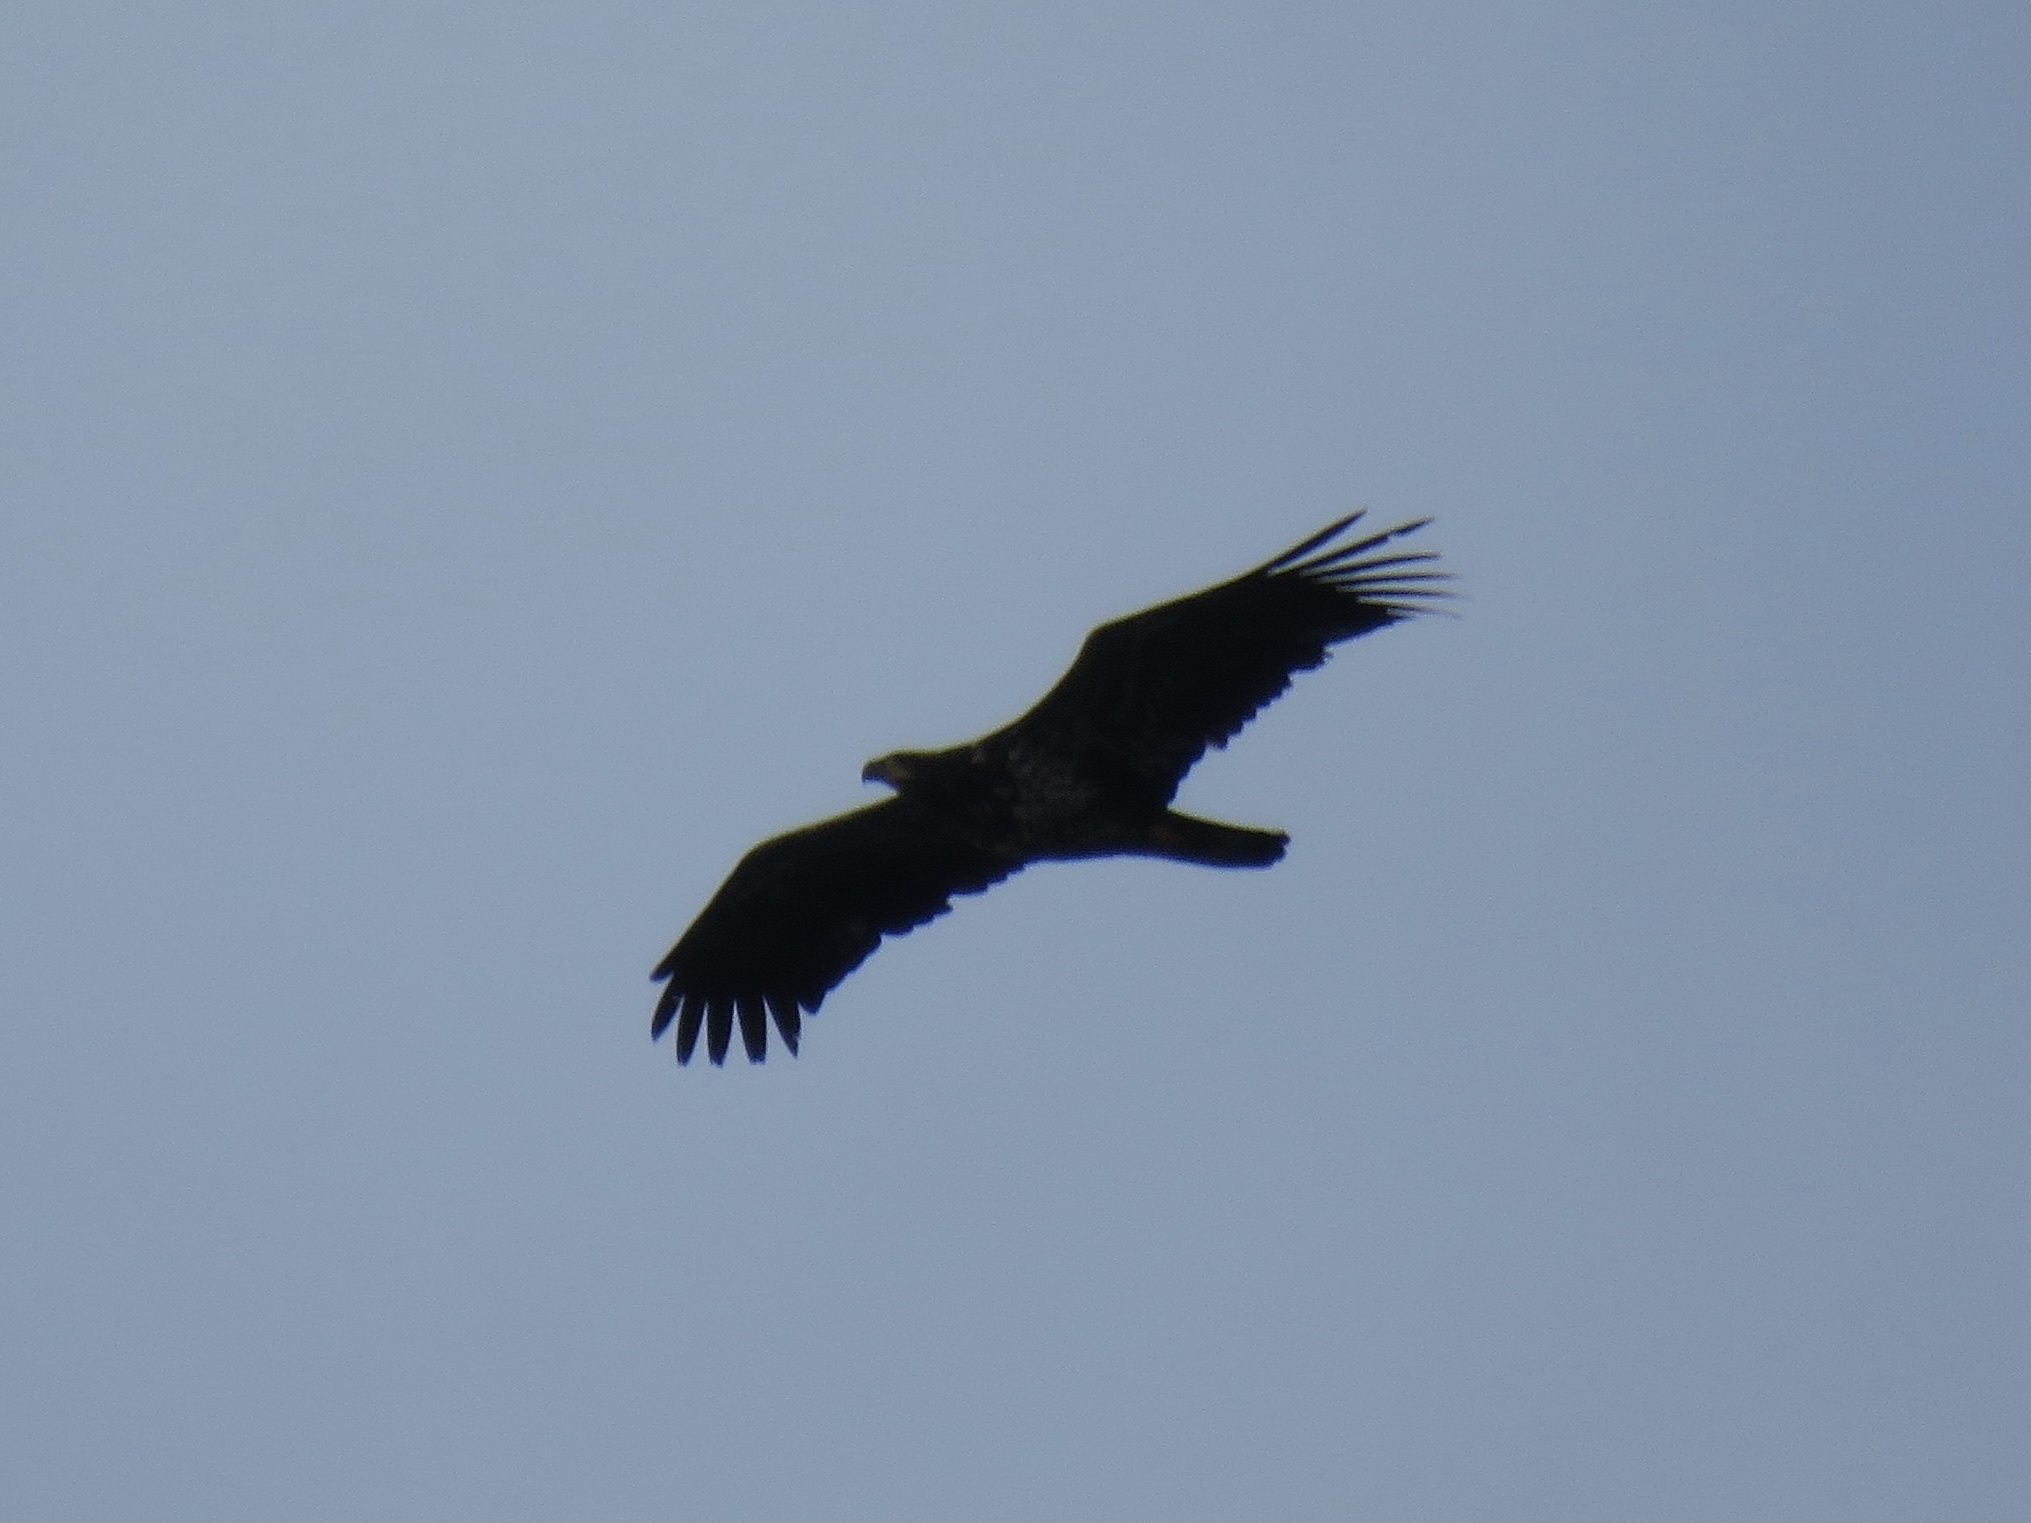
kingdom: Animalia
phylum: Chordata
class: Aves
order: Accipitriformes
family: Accipitridae
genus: Haliaeetus
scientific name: Haliaeetus leucocephalus
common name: Bald eagle
